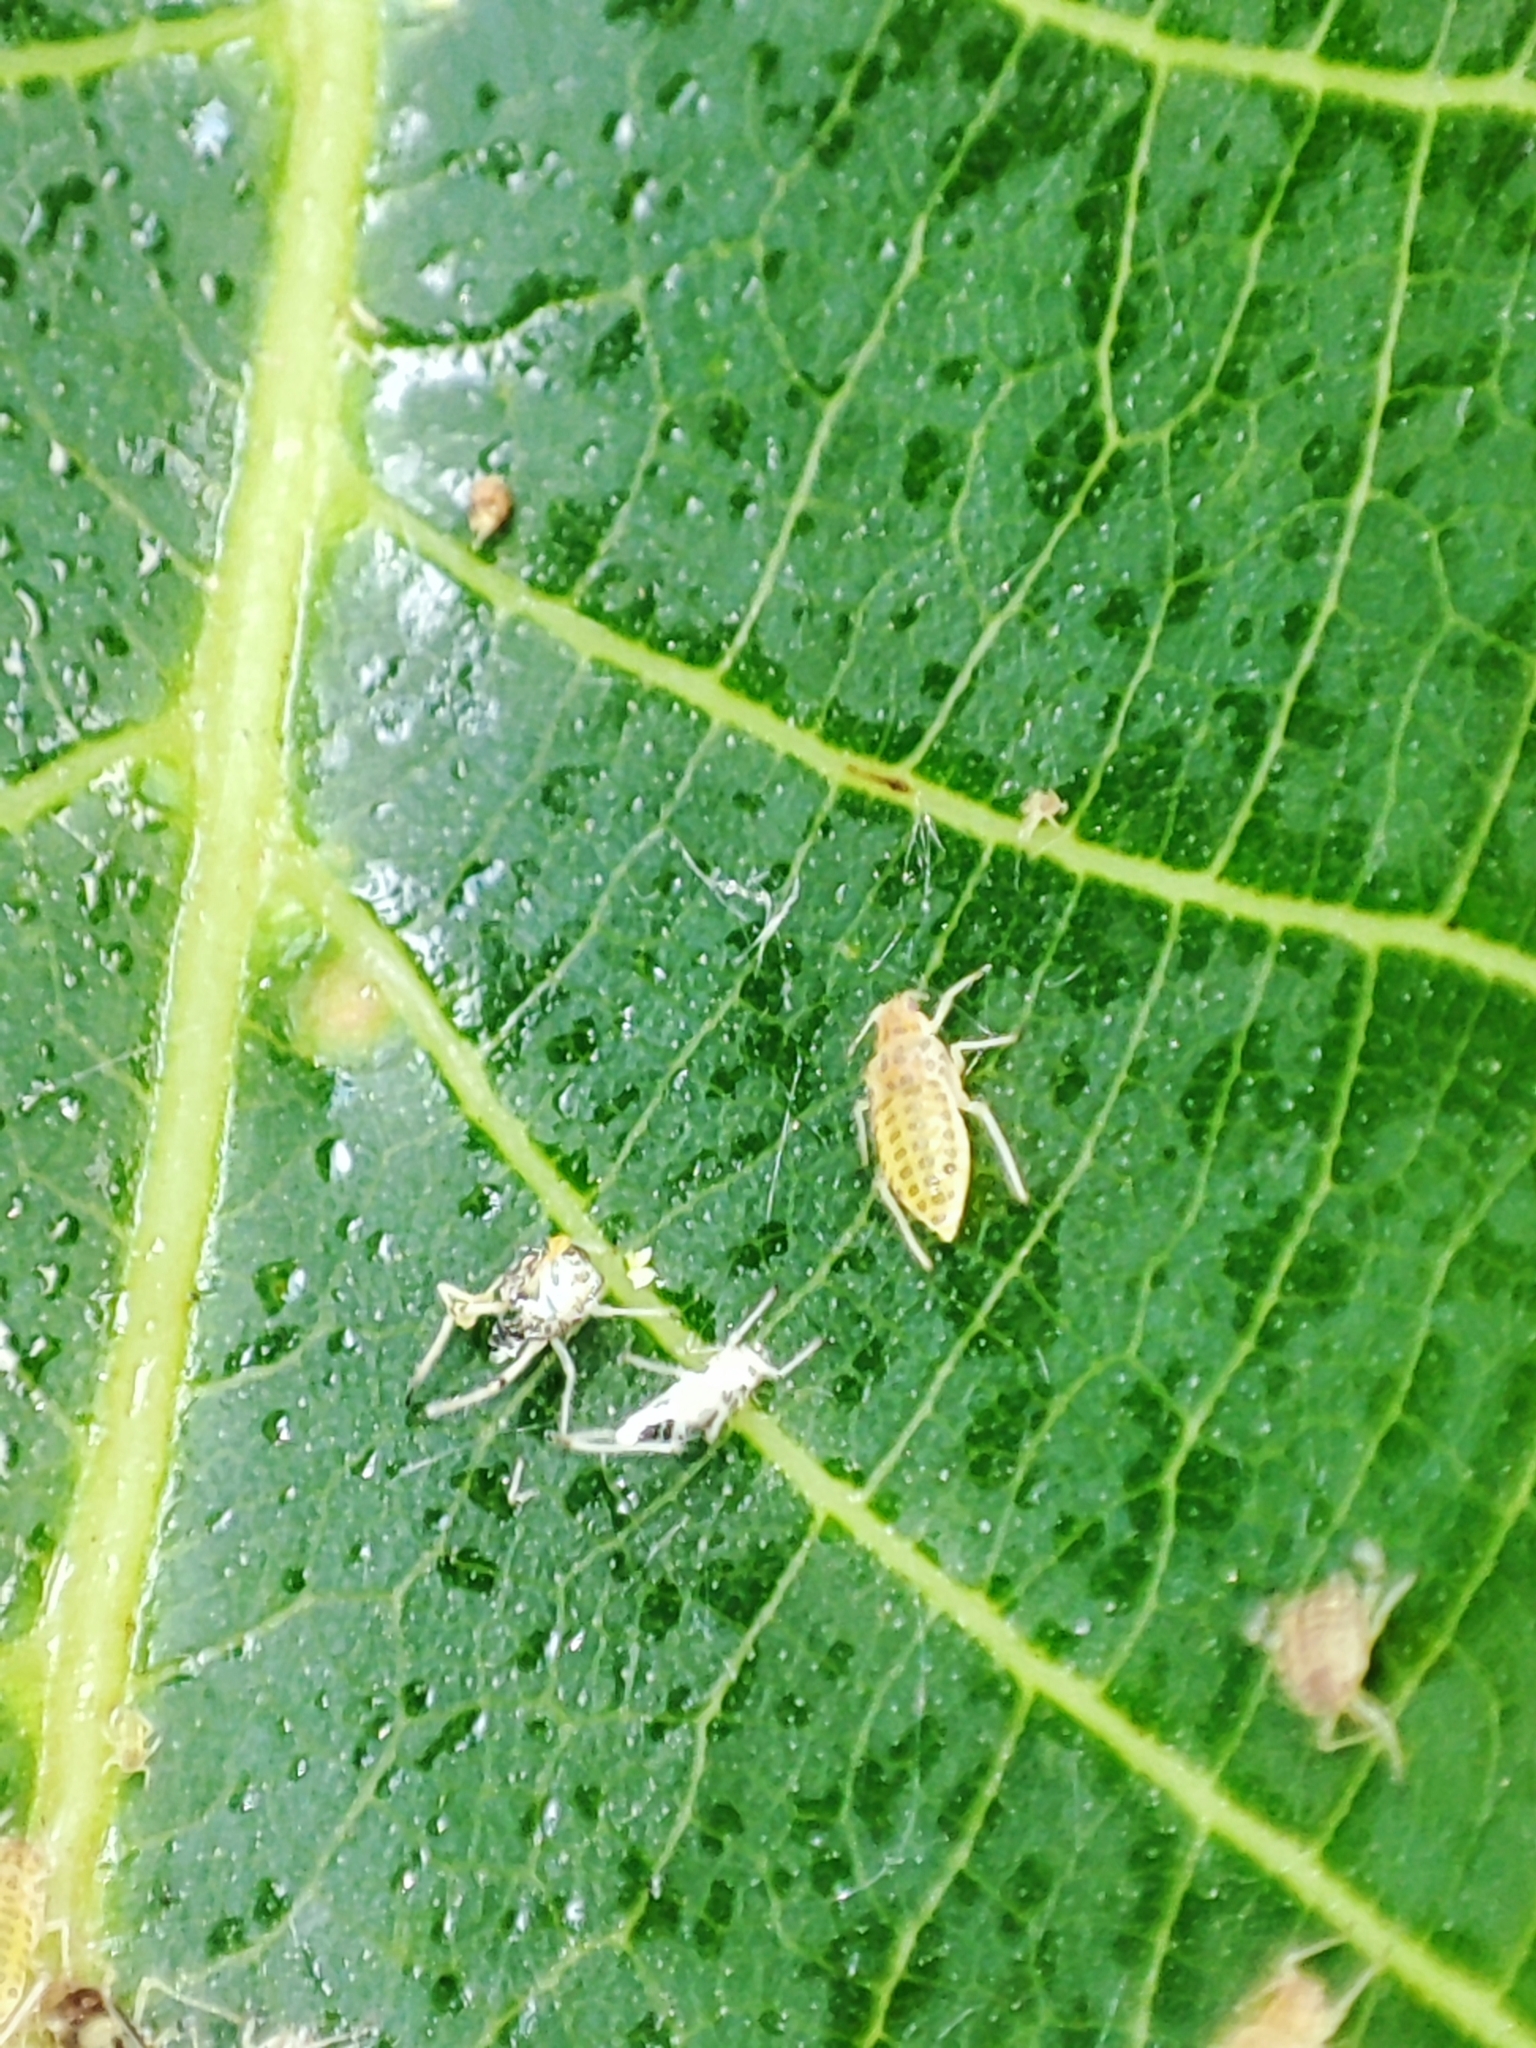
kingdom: Animalia
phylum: Arthropoda
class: Insecta
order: Hemiptera
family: Aphididae
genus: Panaphis
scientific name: Panaphis juglandis
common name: Large walnut aphid
